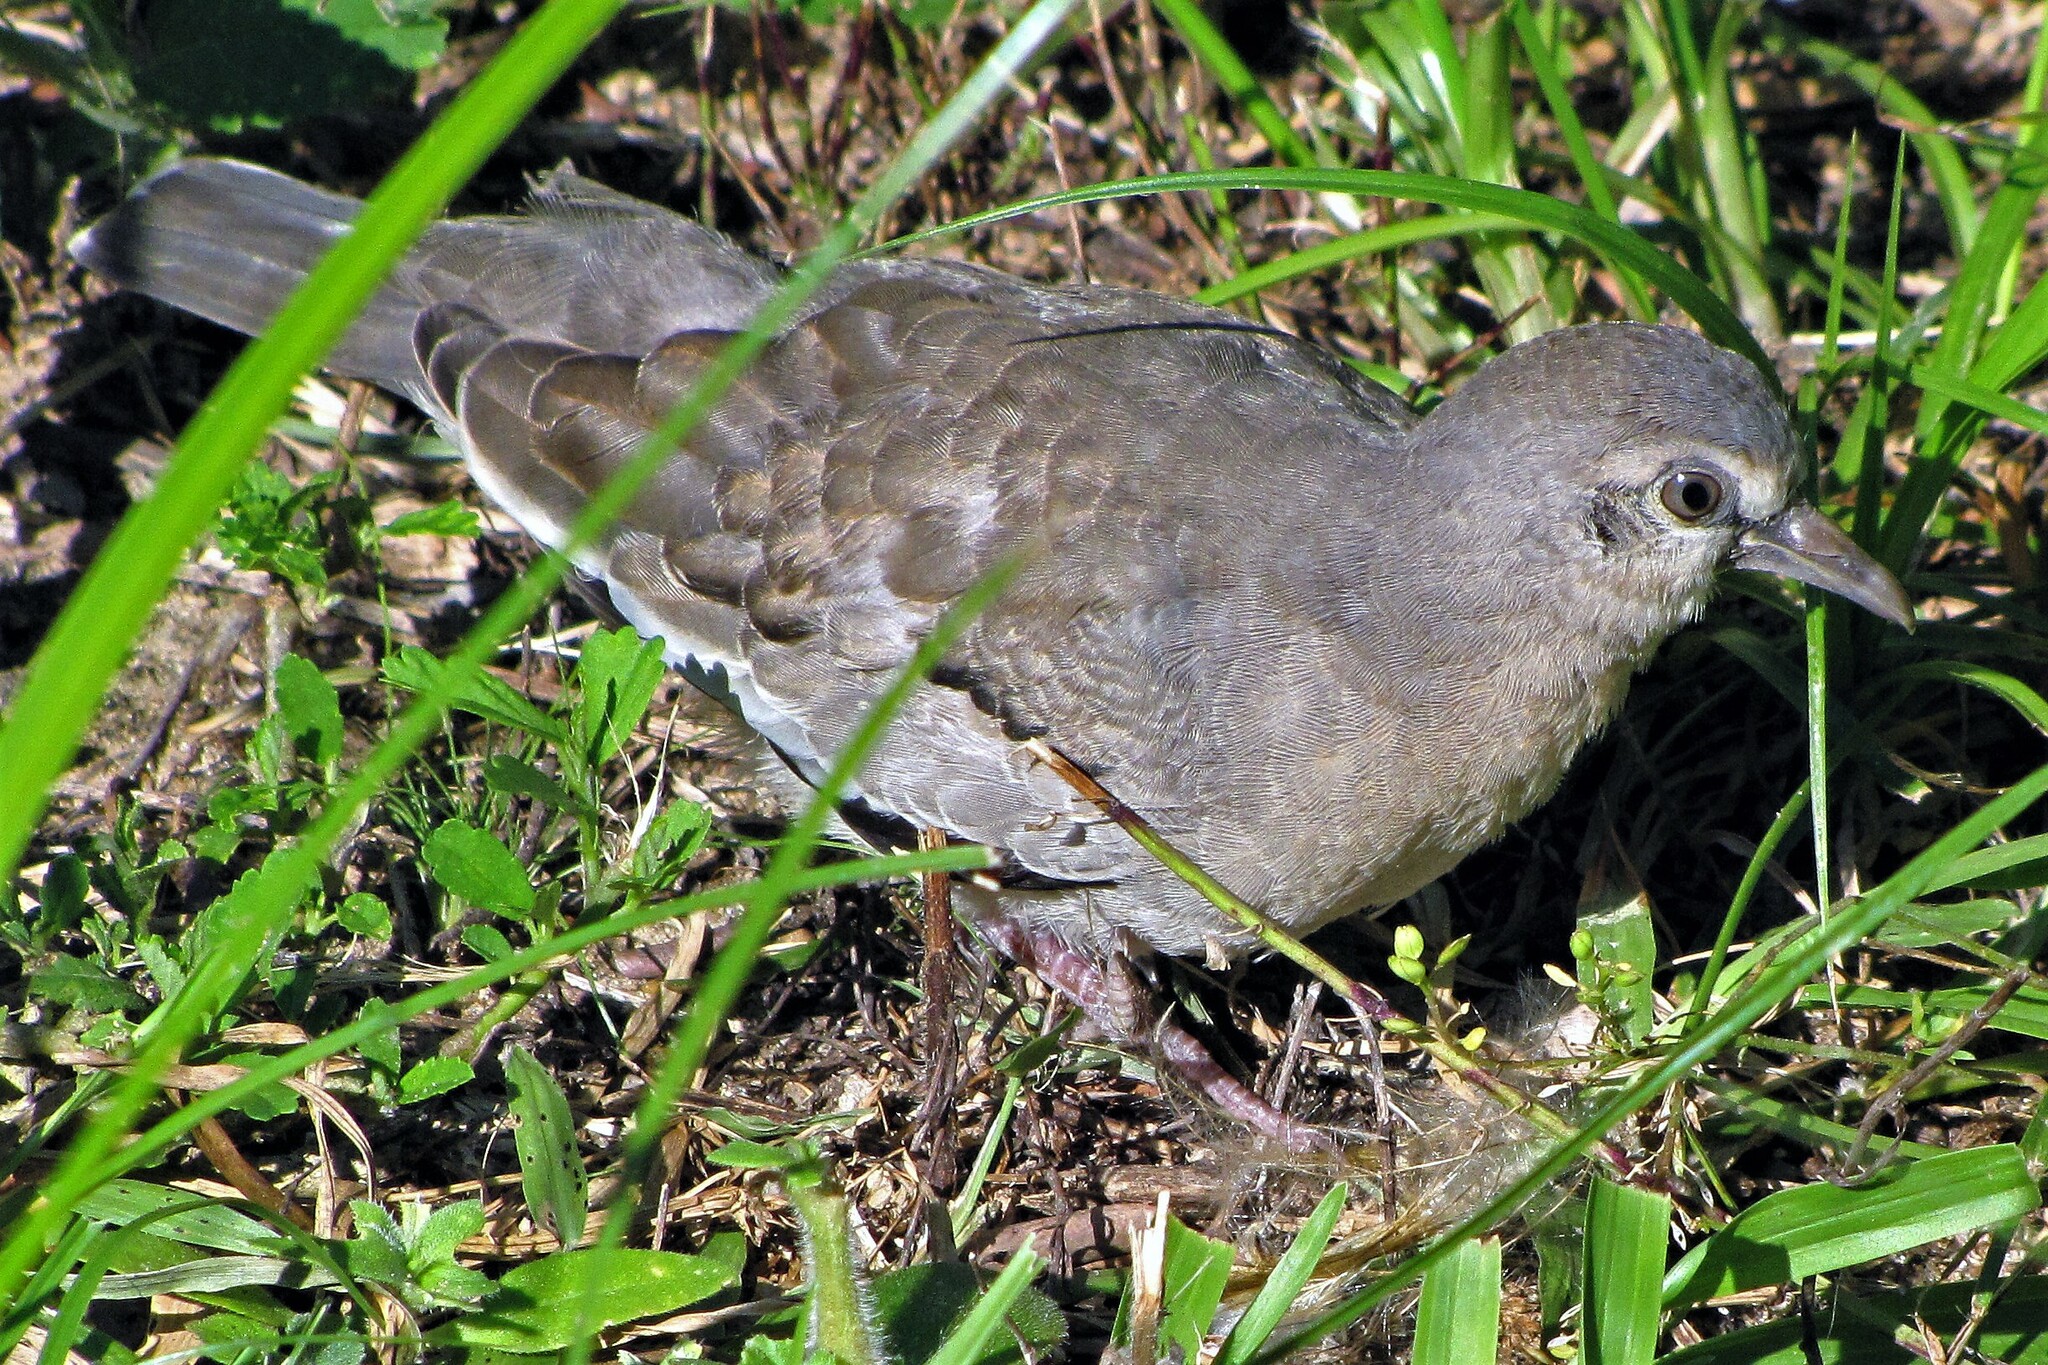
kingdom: Animalia
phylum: Chordata
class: Aves
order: Columbiformes
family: Columbidae
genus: Columbina
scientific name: Columbina picui
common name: Picui ground dove
